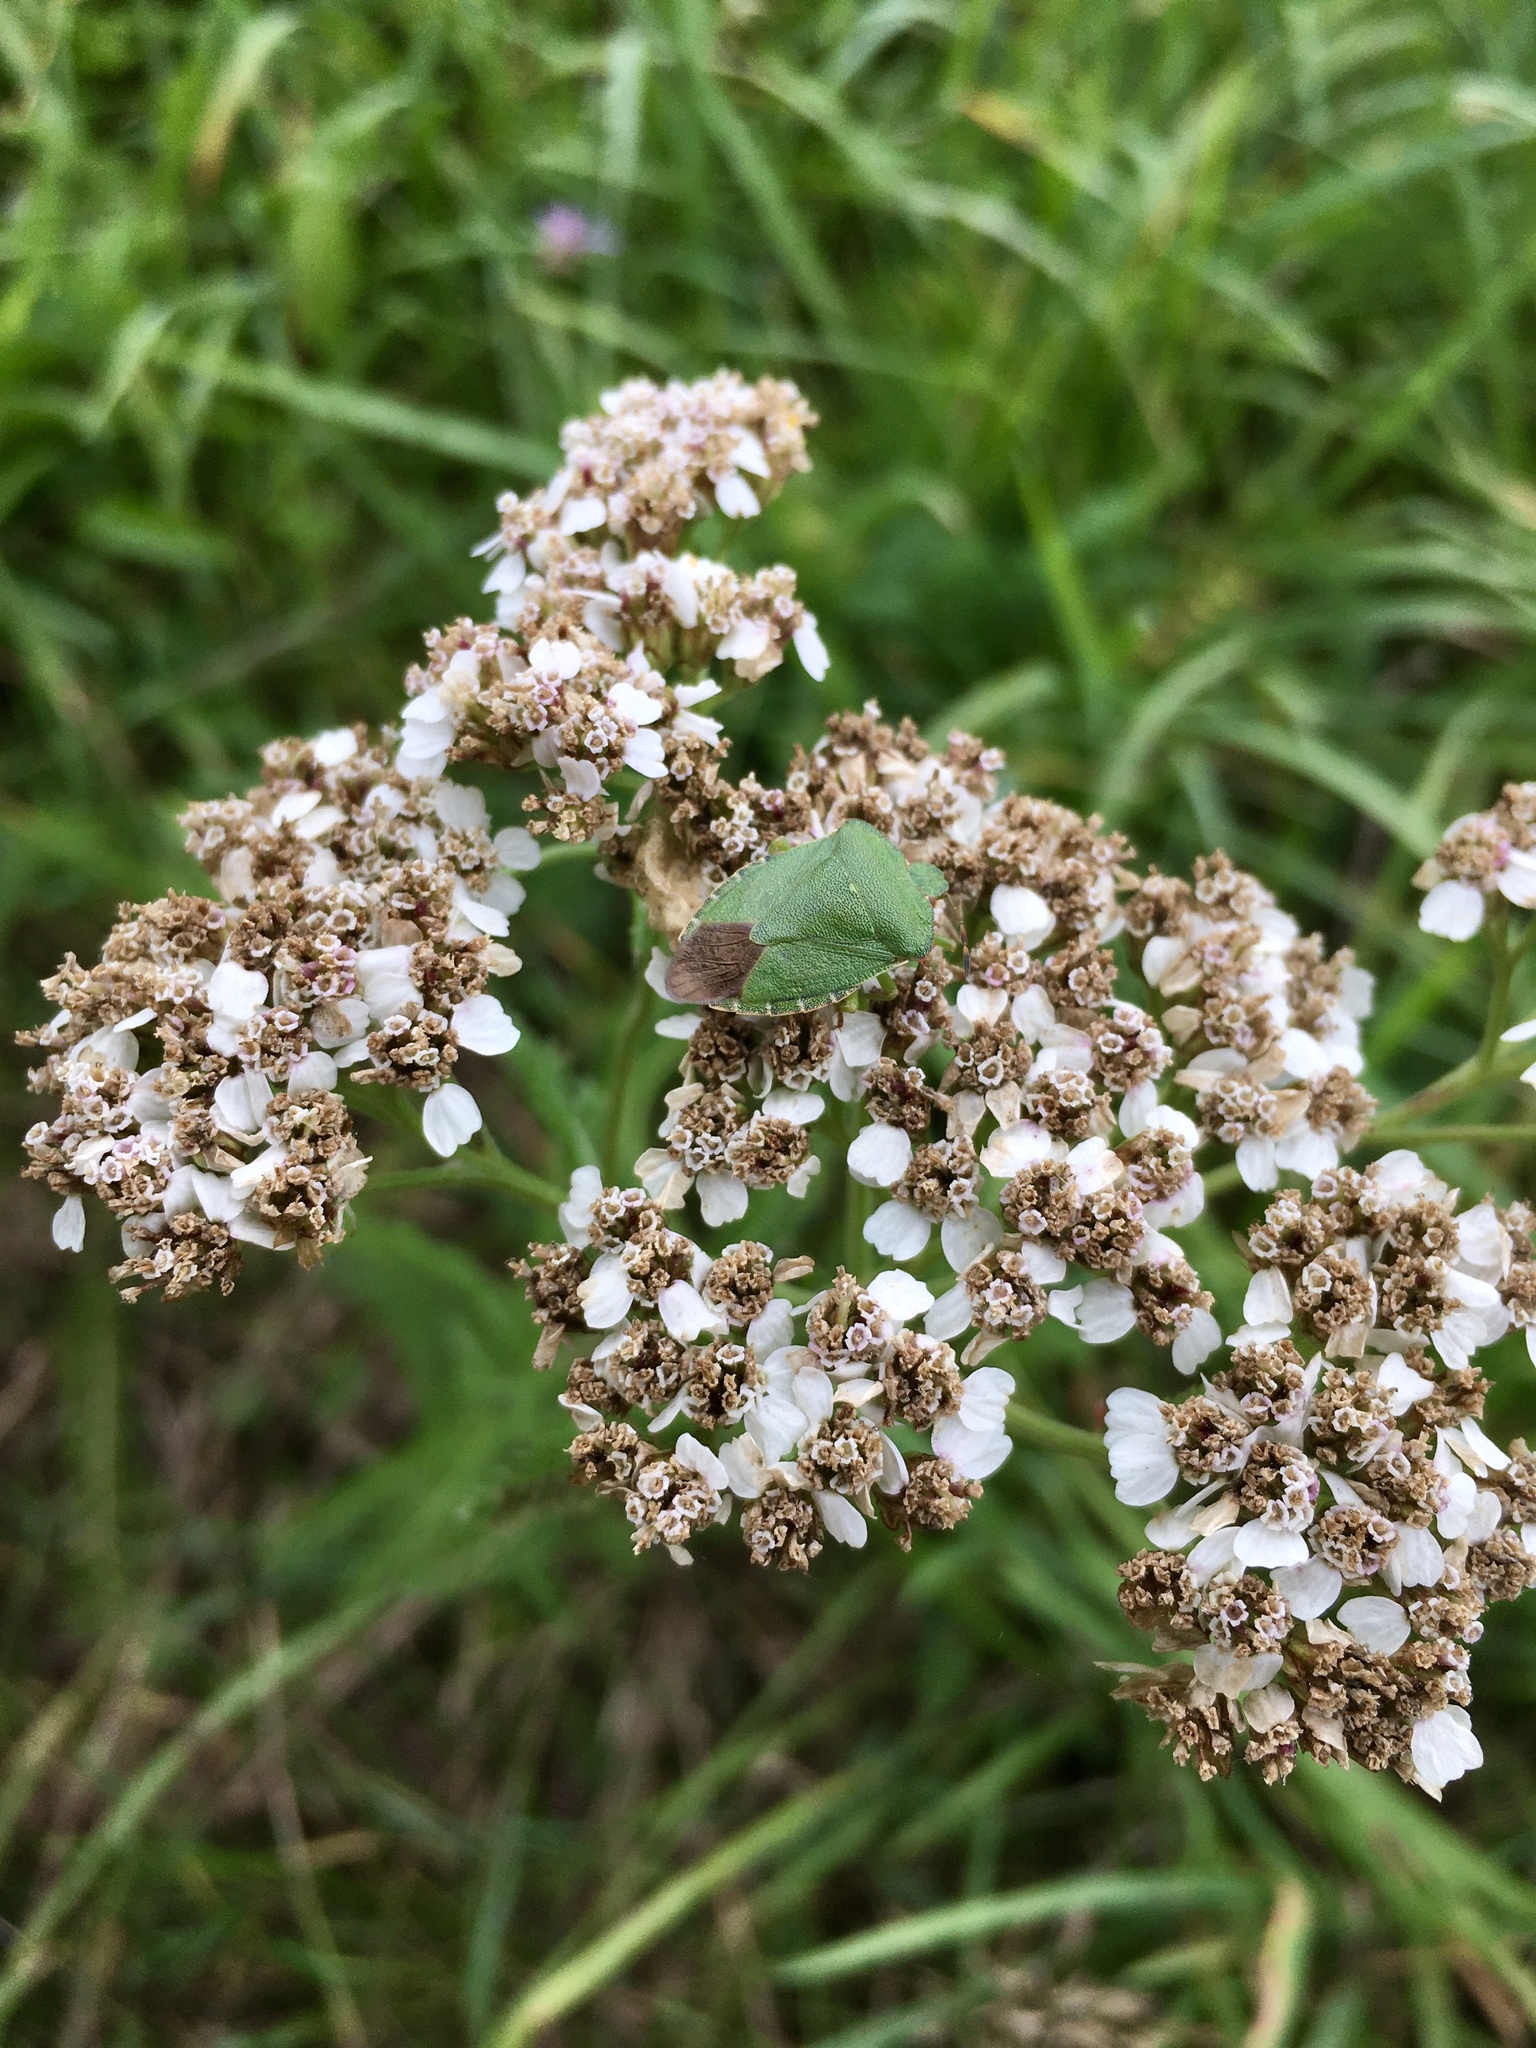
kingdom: Animalia
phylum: Arthropoda
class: Insecta
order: Hemiptera
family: Pentatomidae
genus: Palomena
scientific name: Palomena prasina
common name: Green shieldbug
